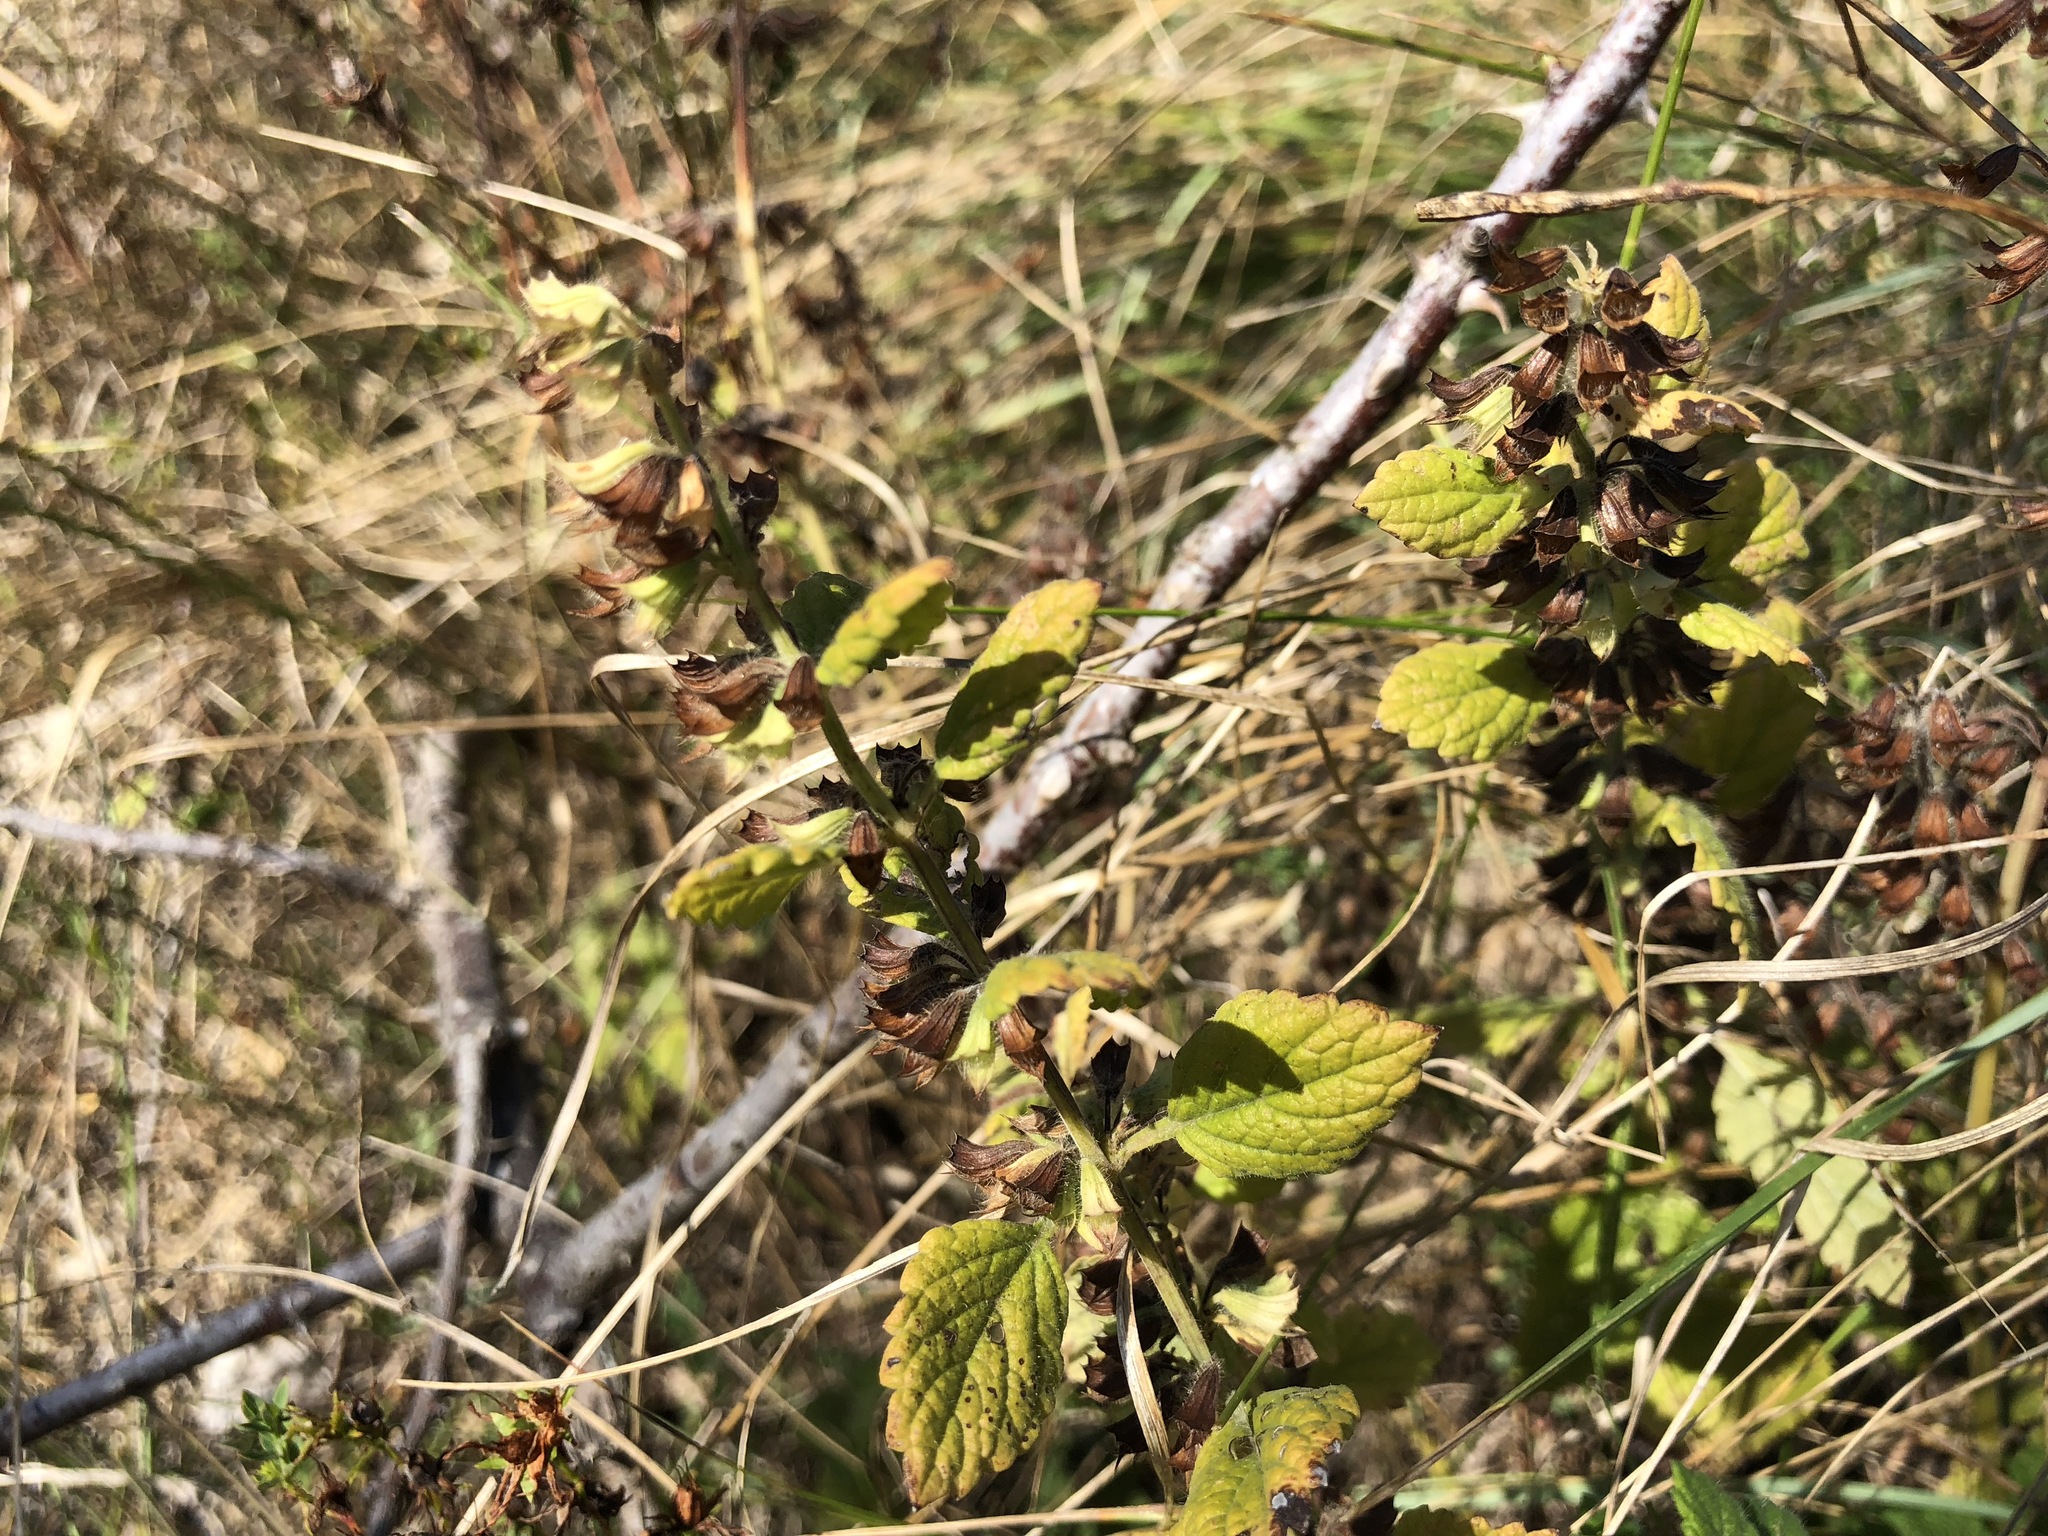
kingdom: Plantae
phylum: Tracheophyta
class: Magnoliopsida
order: Lamiales
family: Lamiaceae
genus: Teucrium
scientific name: Teucrium scorodonia
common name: Woodland germander
